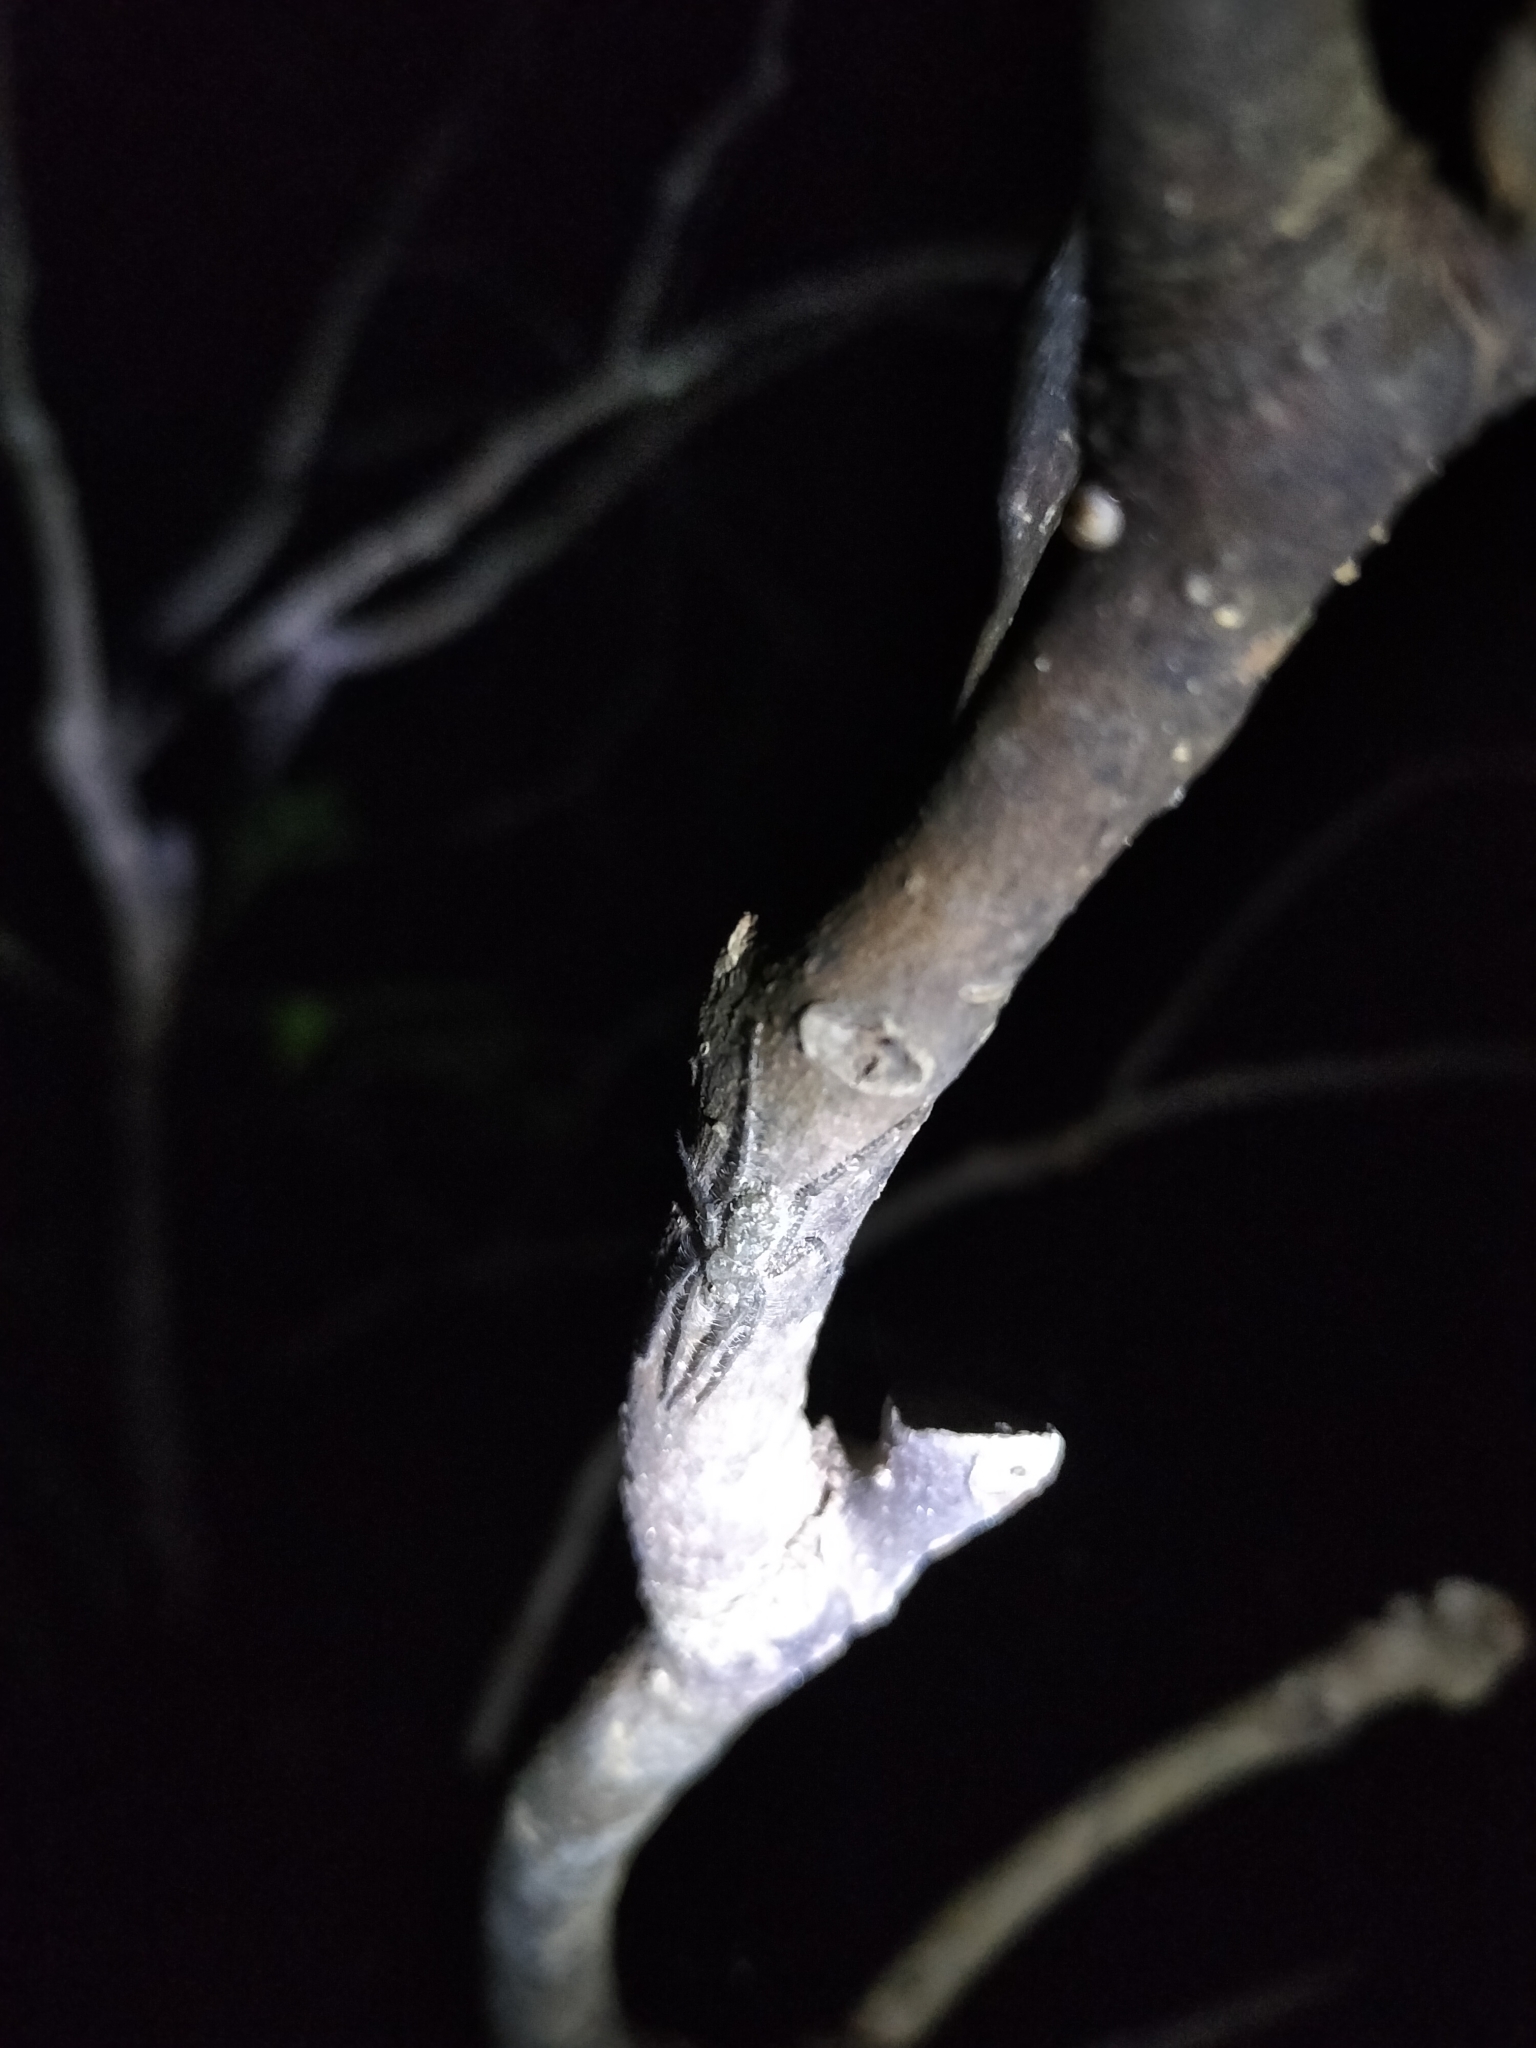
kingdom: Animalia
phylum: Arthropoda
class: Arachnida
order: Araneae
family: Sparassidae
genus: Pandercetes
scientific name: Pandercetes gracilis
